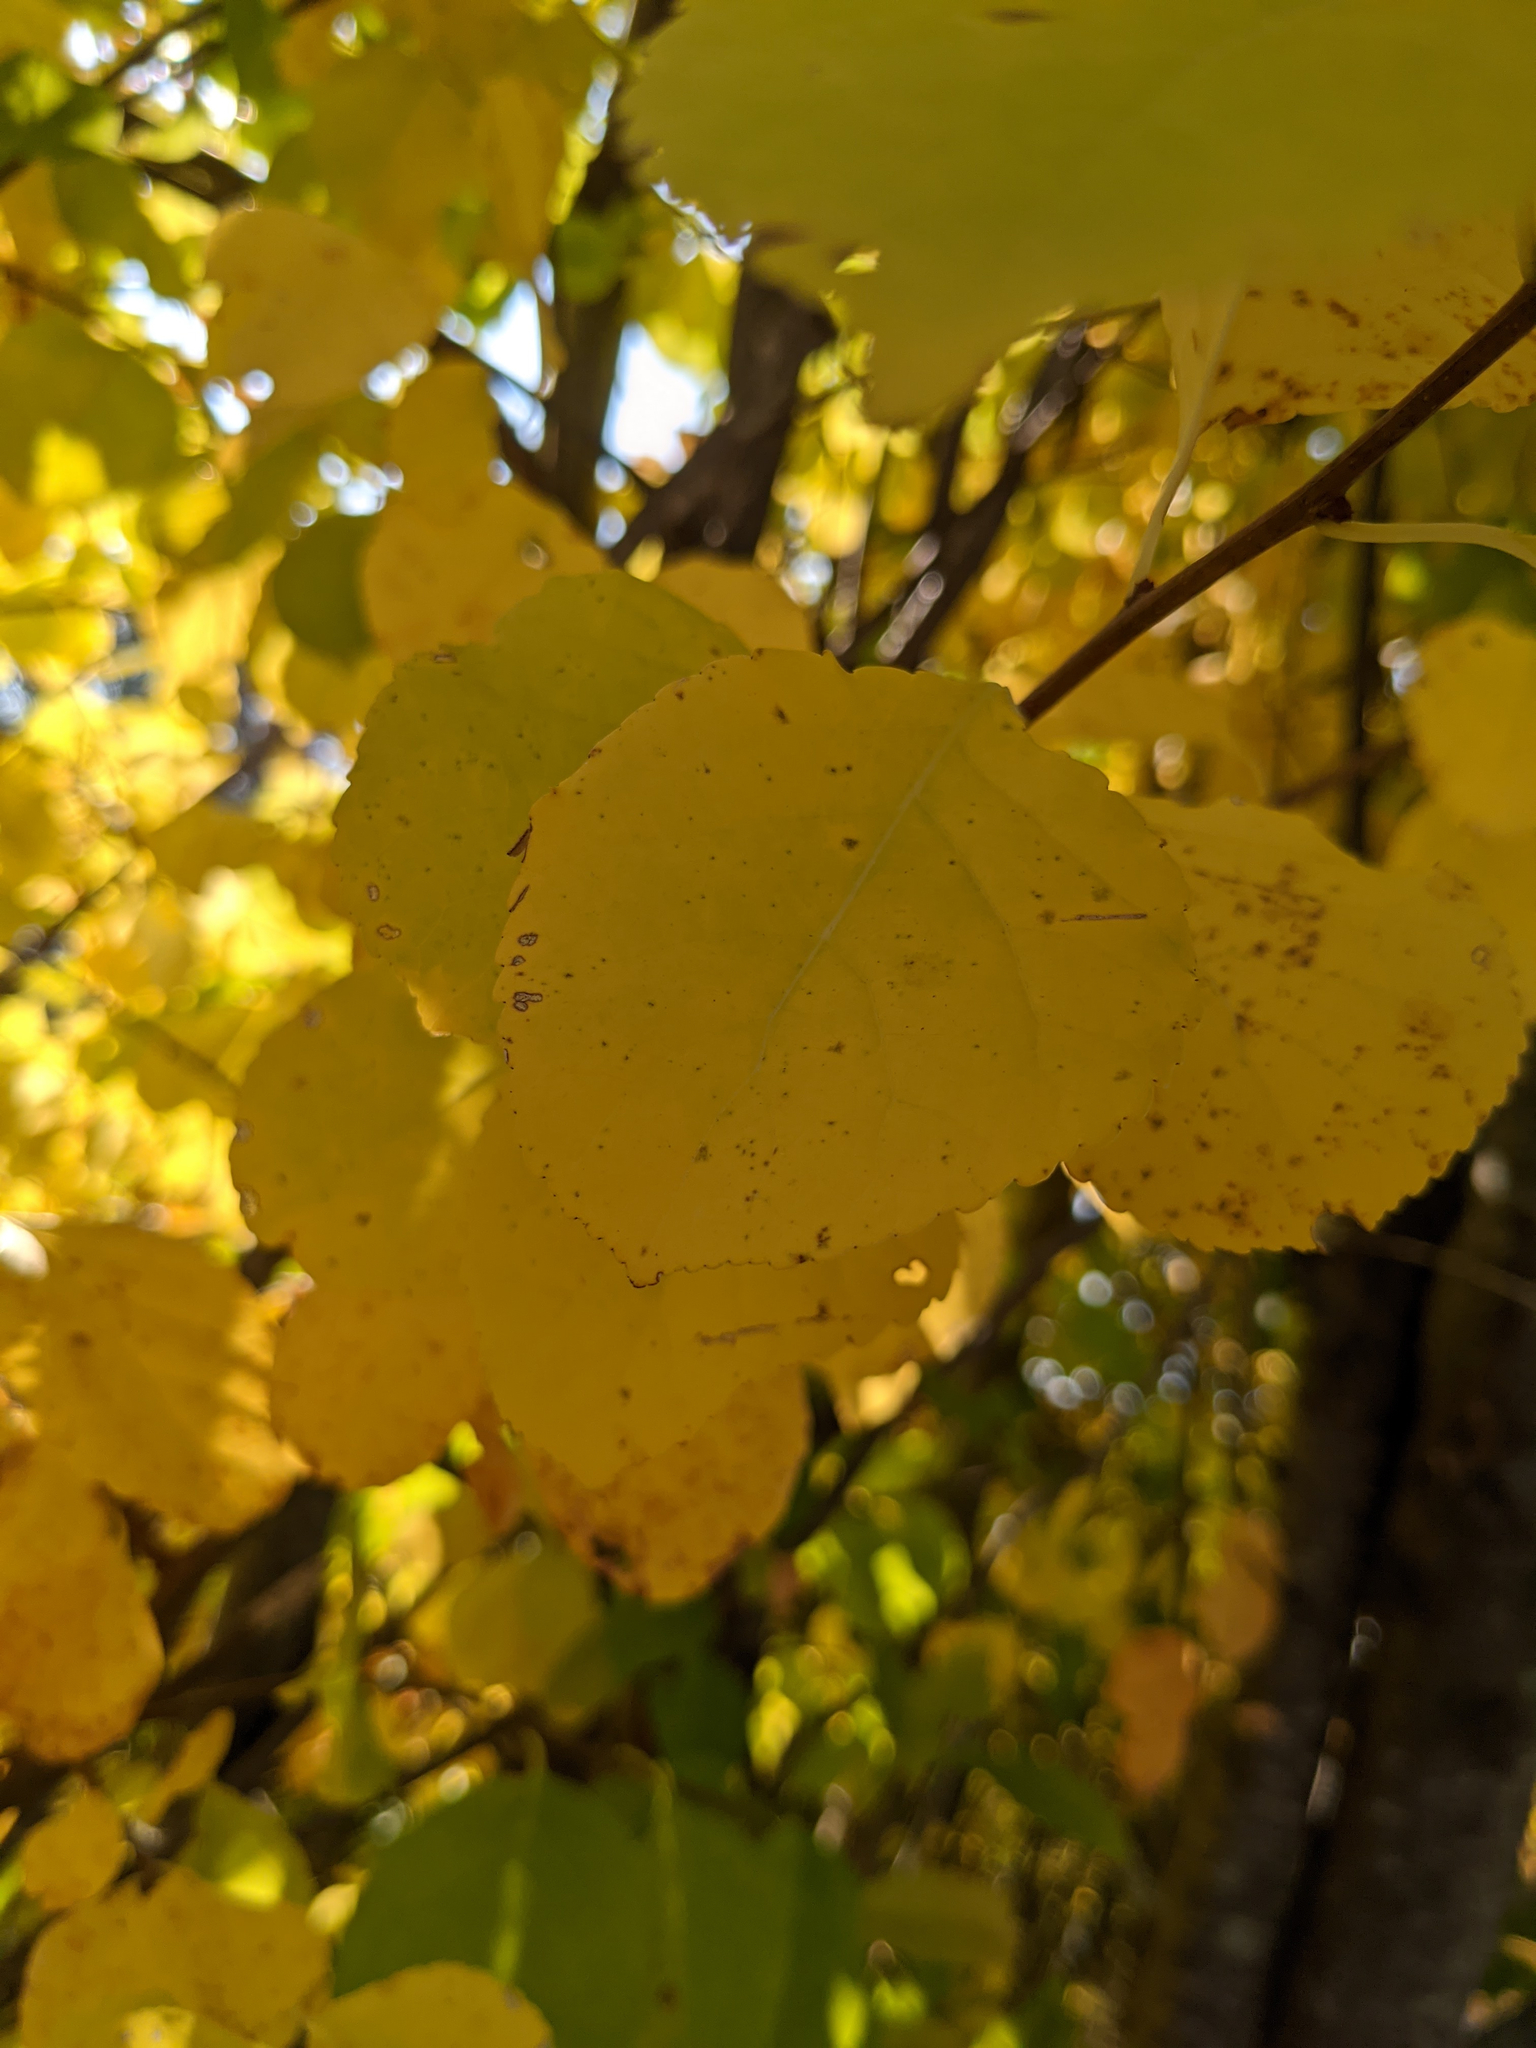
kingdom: Plantae
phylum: Tracheophyta
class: Magnoliopsida
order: Malvales
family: Malvaceae
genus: Tilia
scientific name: Tilia cordata
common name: Small-leaved lime
